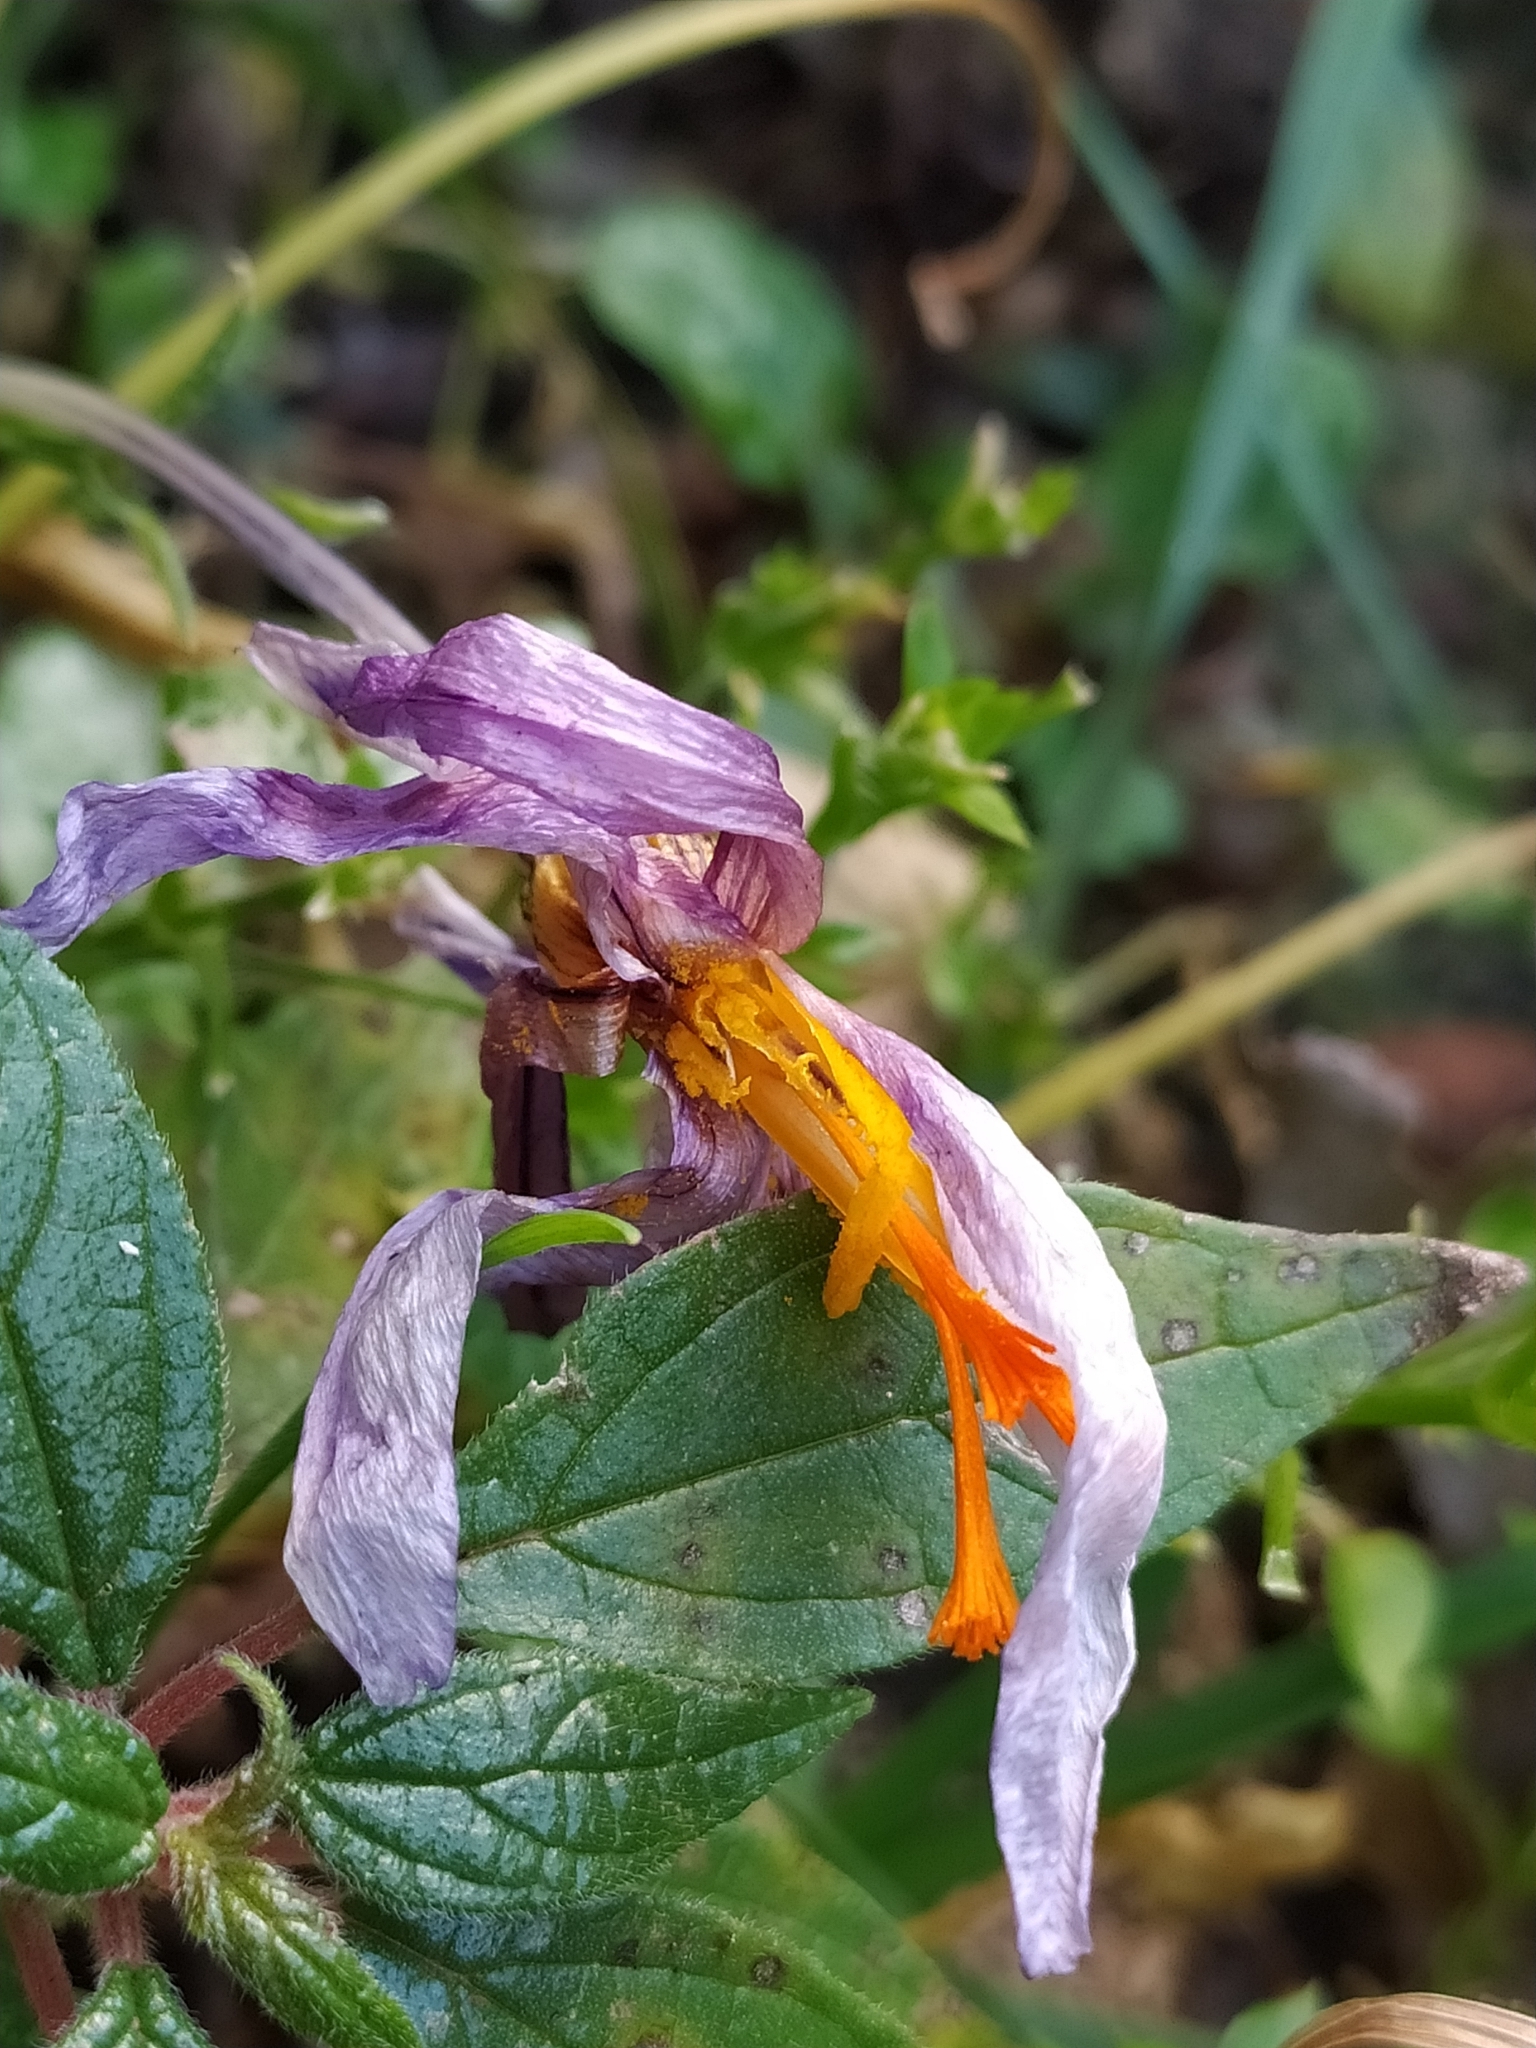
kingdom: Plantae
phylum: Tracheophyta
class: Liliopsida
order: Asparagales
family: Iridaceae
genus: Crocus
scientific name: Crocus biflorus
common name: Silvery crocus
